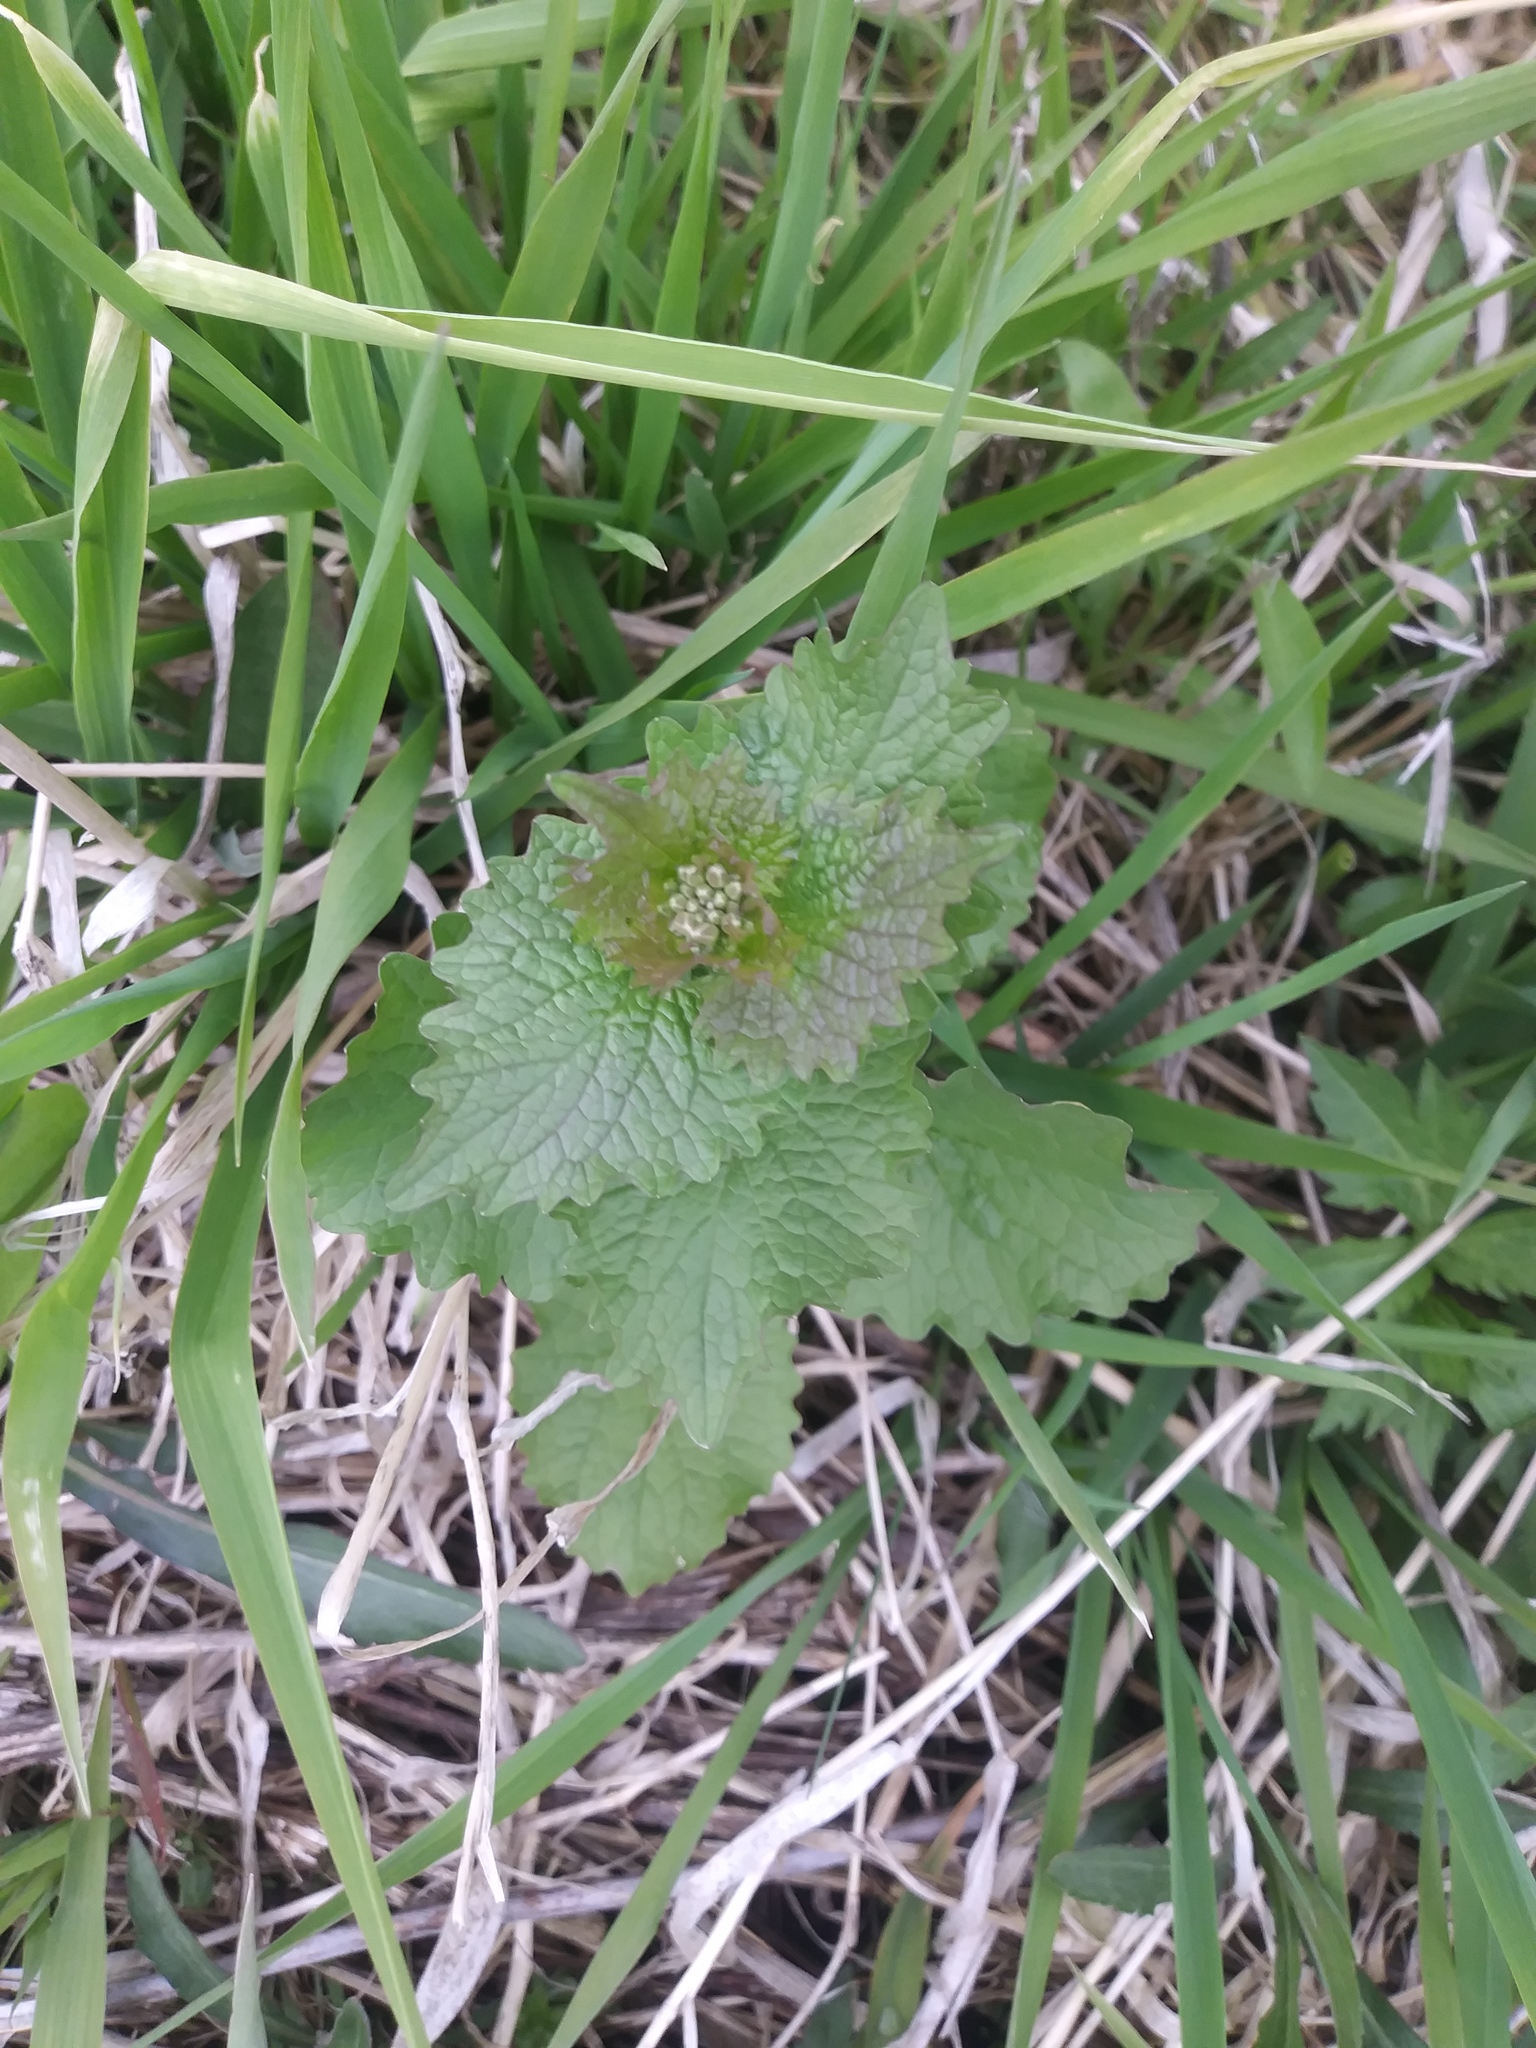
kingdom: Plantae
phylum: Tracheophyta
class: Magnoliopsida
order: Brassicales
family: Brassicaceae
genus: Alliaria
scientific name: Alliaria petiolata
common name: Garlic mustard
